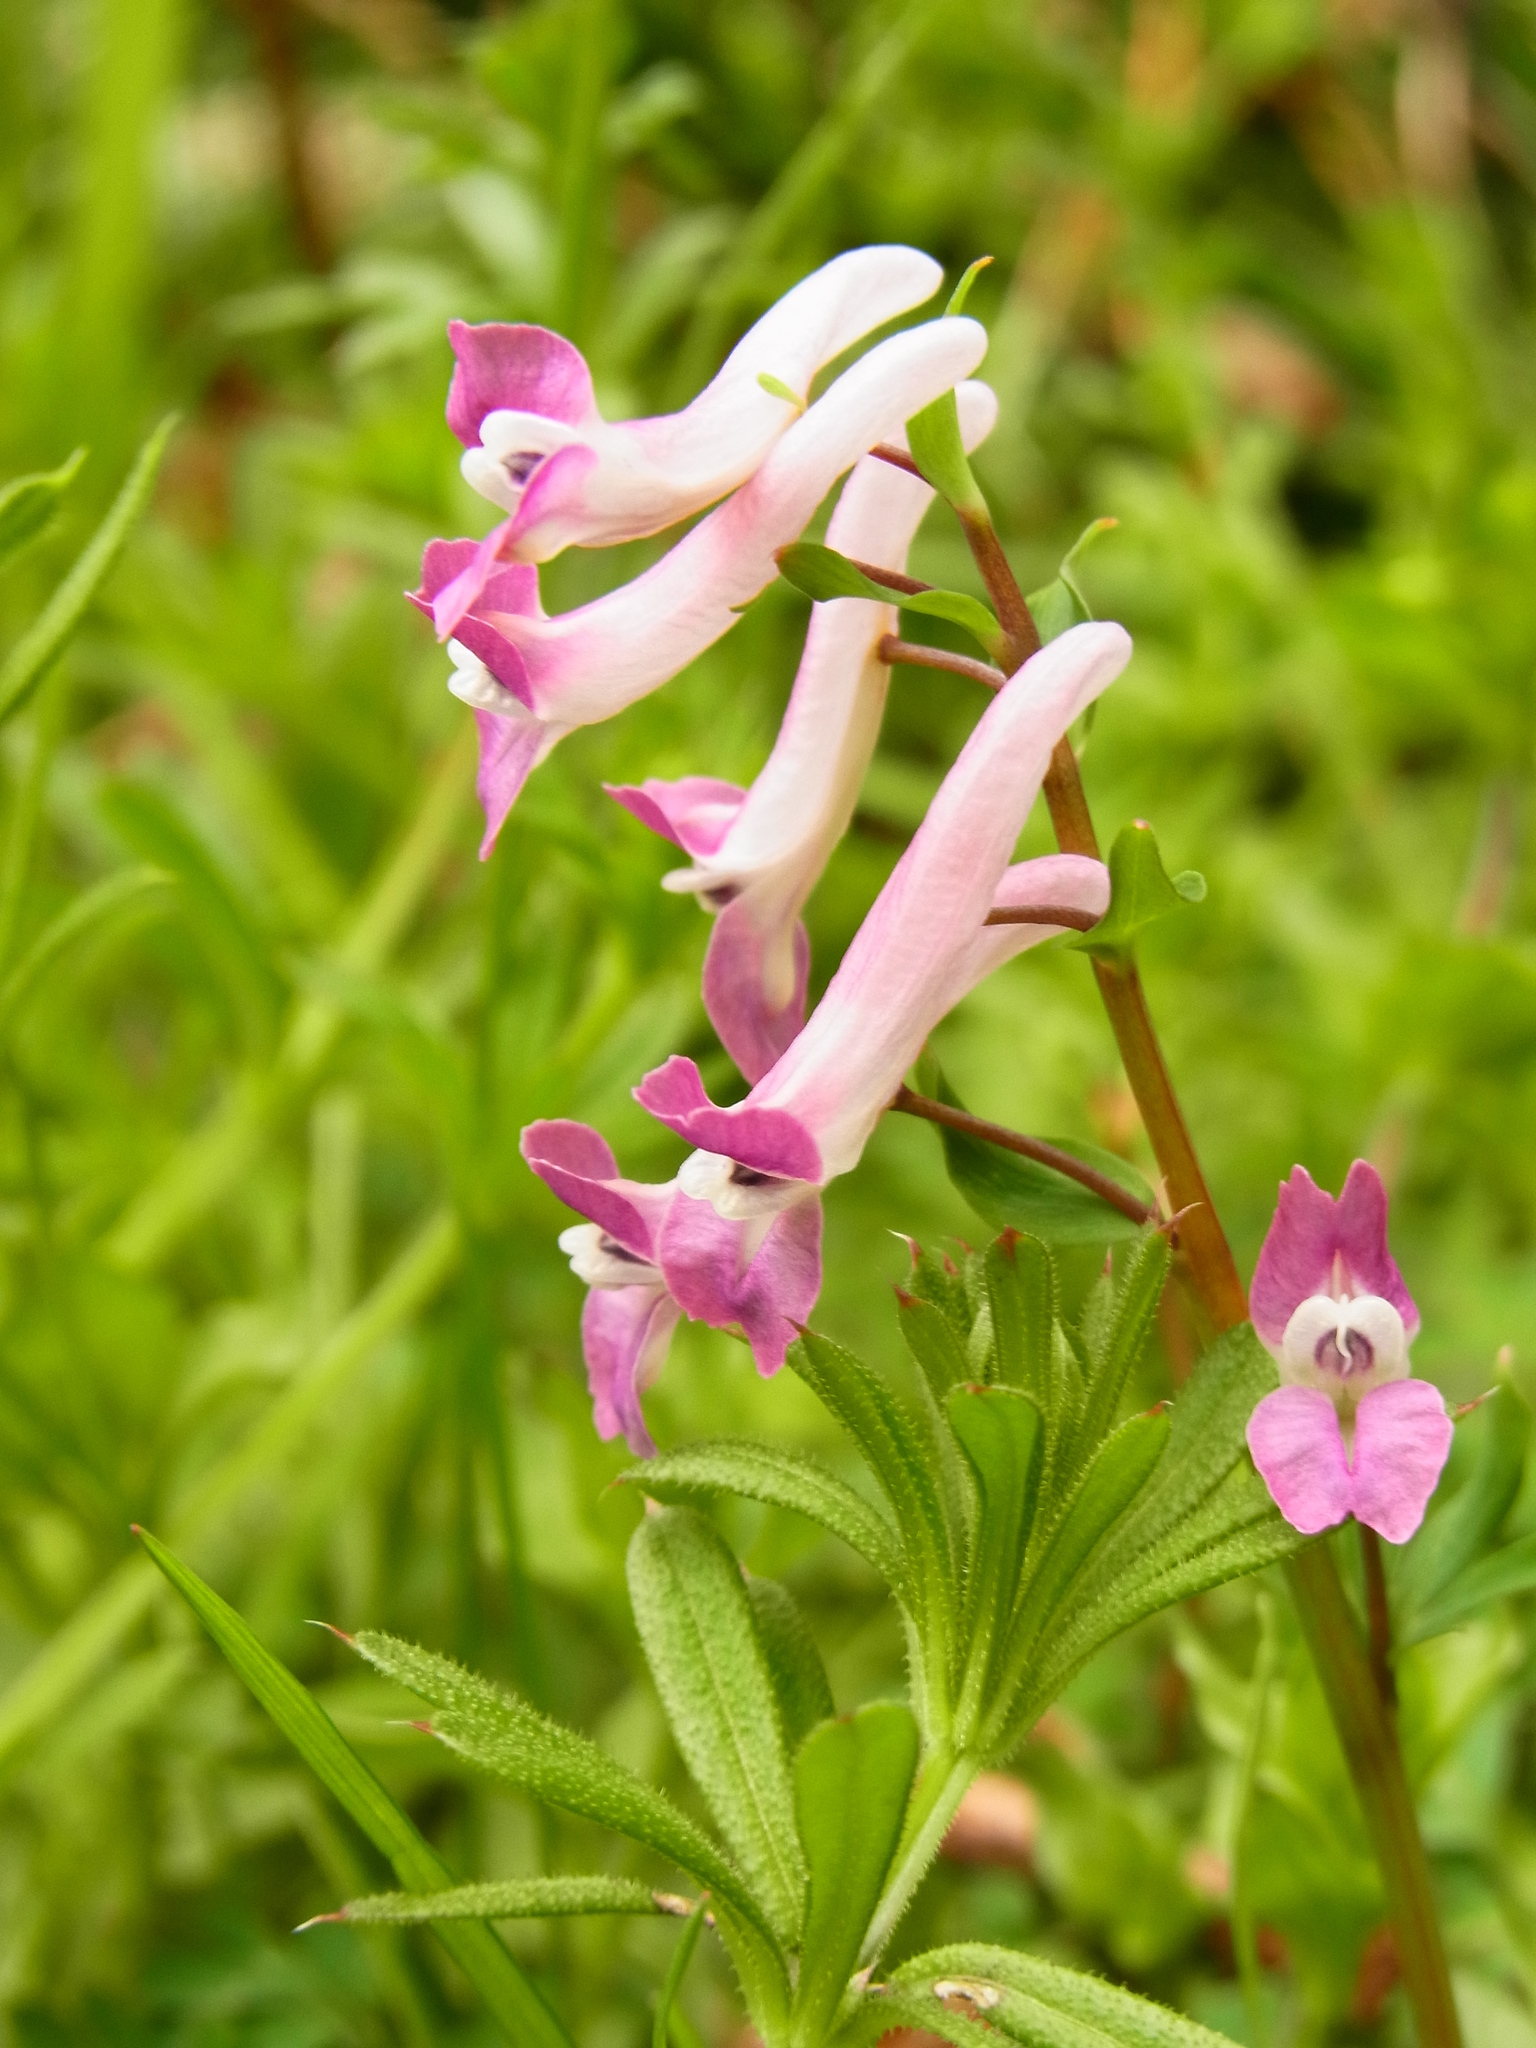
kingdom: Plantae
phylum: Tracheophyta
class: Magnoliopsida
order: Ranunculales
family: Papaveraceae
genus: Corydalis
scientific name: Corydalis decumbens
